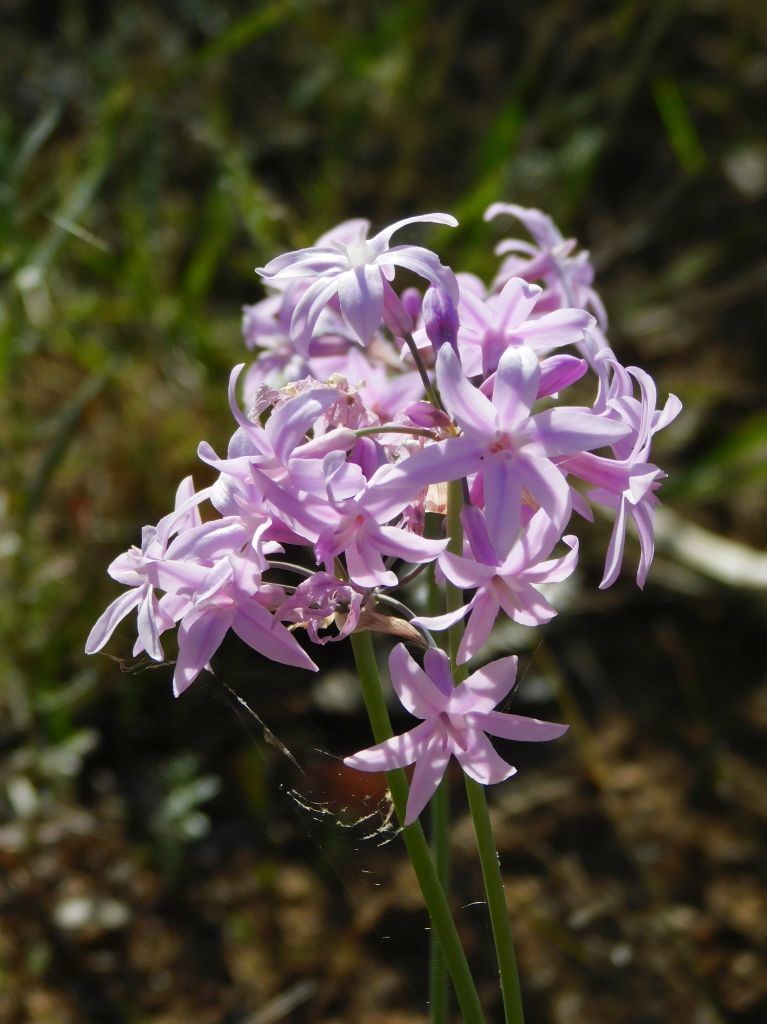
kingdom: Plantae
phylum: Tracheophyta
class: Liliopsida
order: Asparagales
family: Amaryllidaceae
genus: Tulbaghia
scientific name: Tulbaghia violacea
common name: Society garlic
